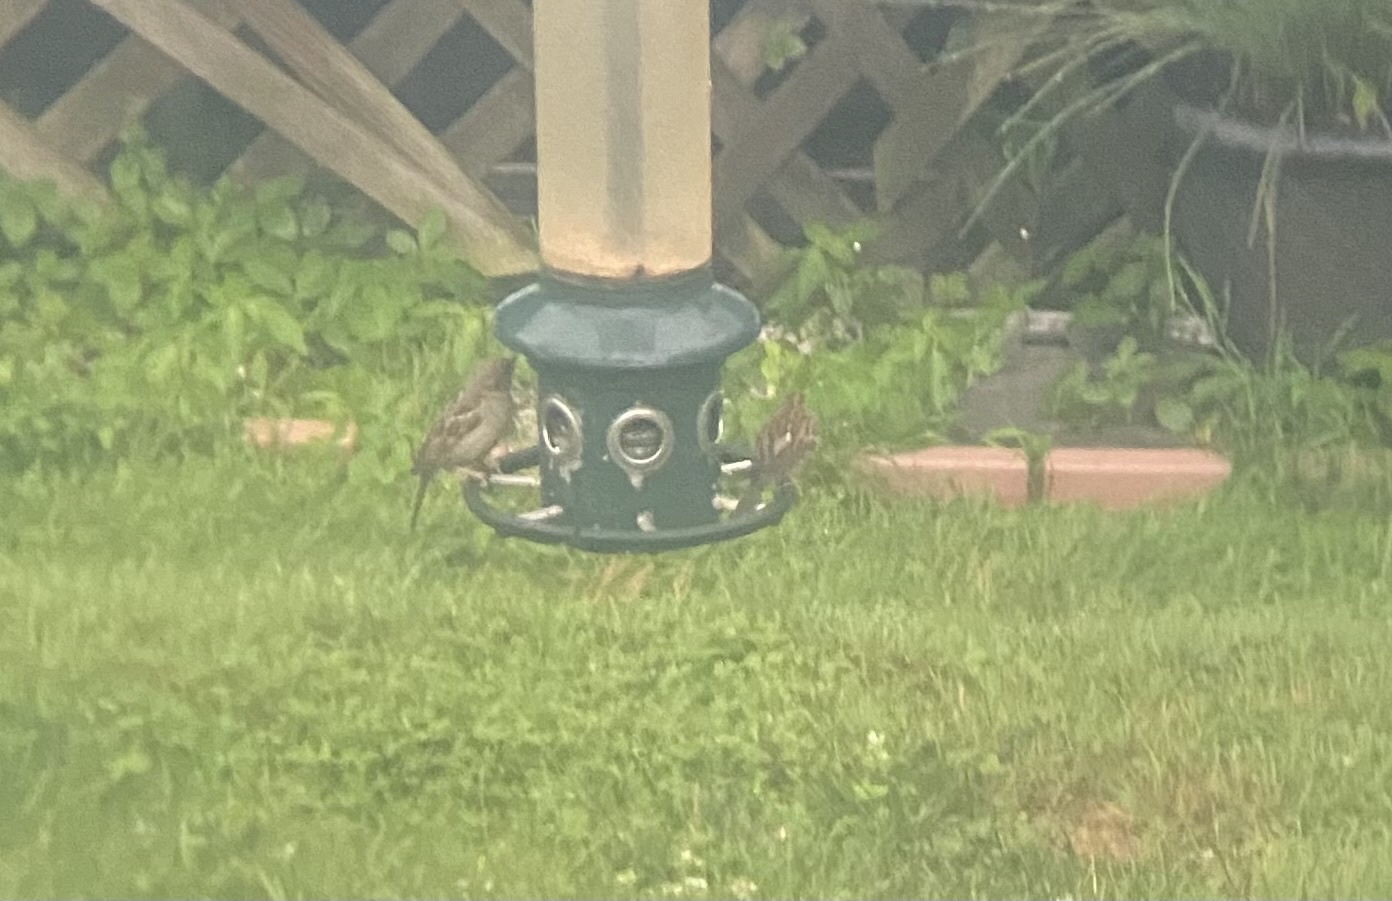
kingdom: Animalia
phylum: Chordata
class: Aves
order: Passeriformes
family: Passeridae
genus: Passer
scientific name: Passer domesticus
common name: House sparrow
